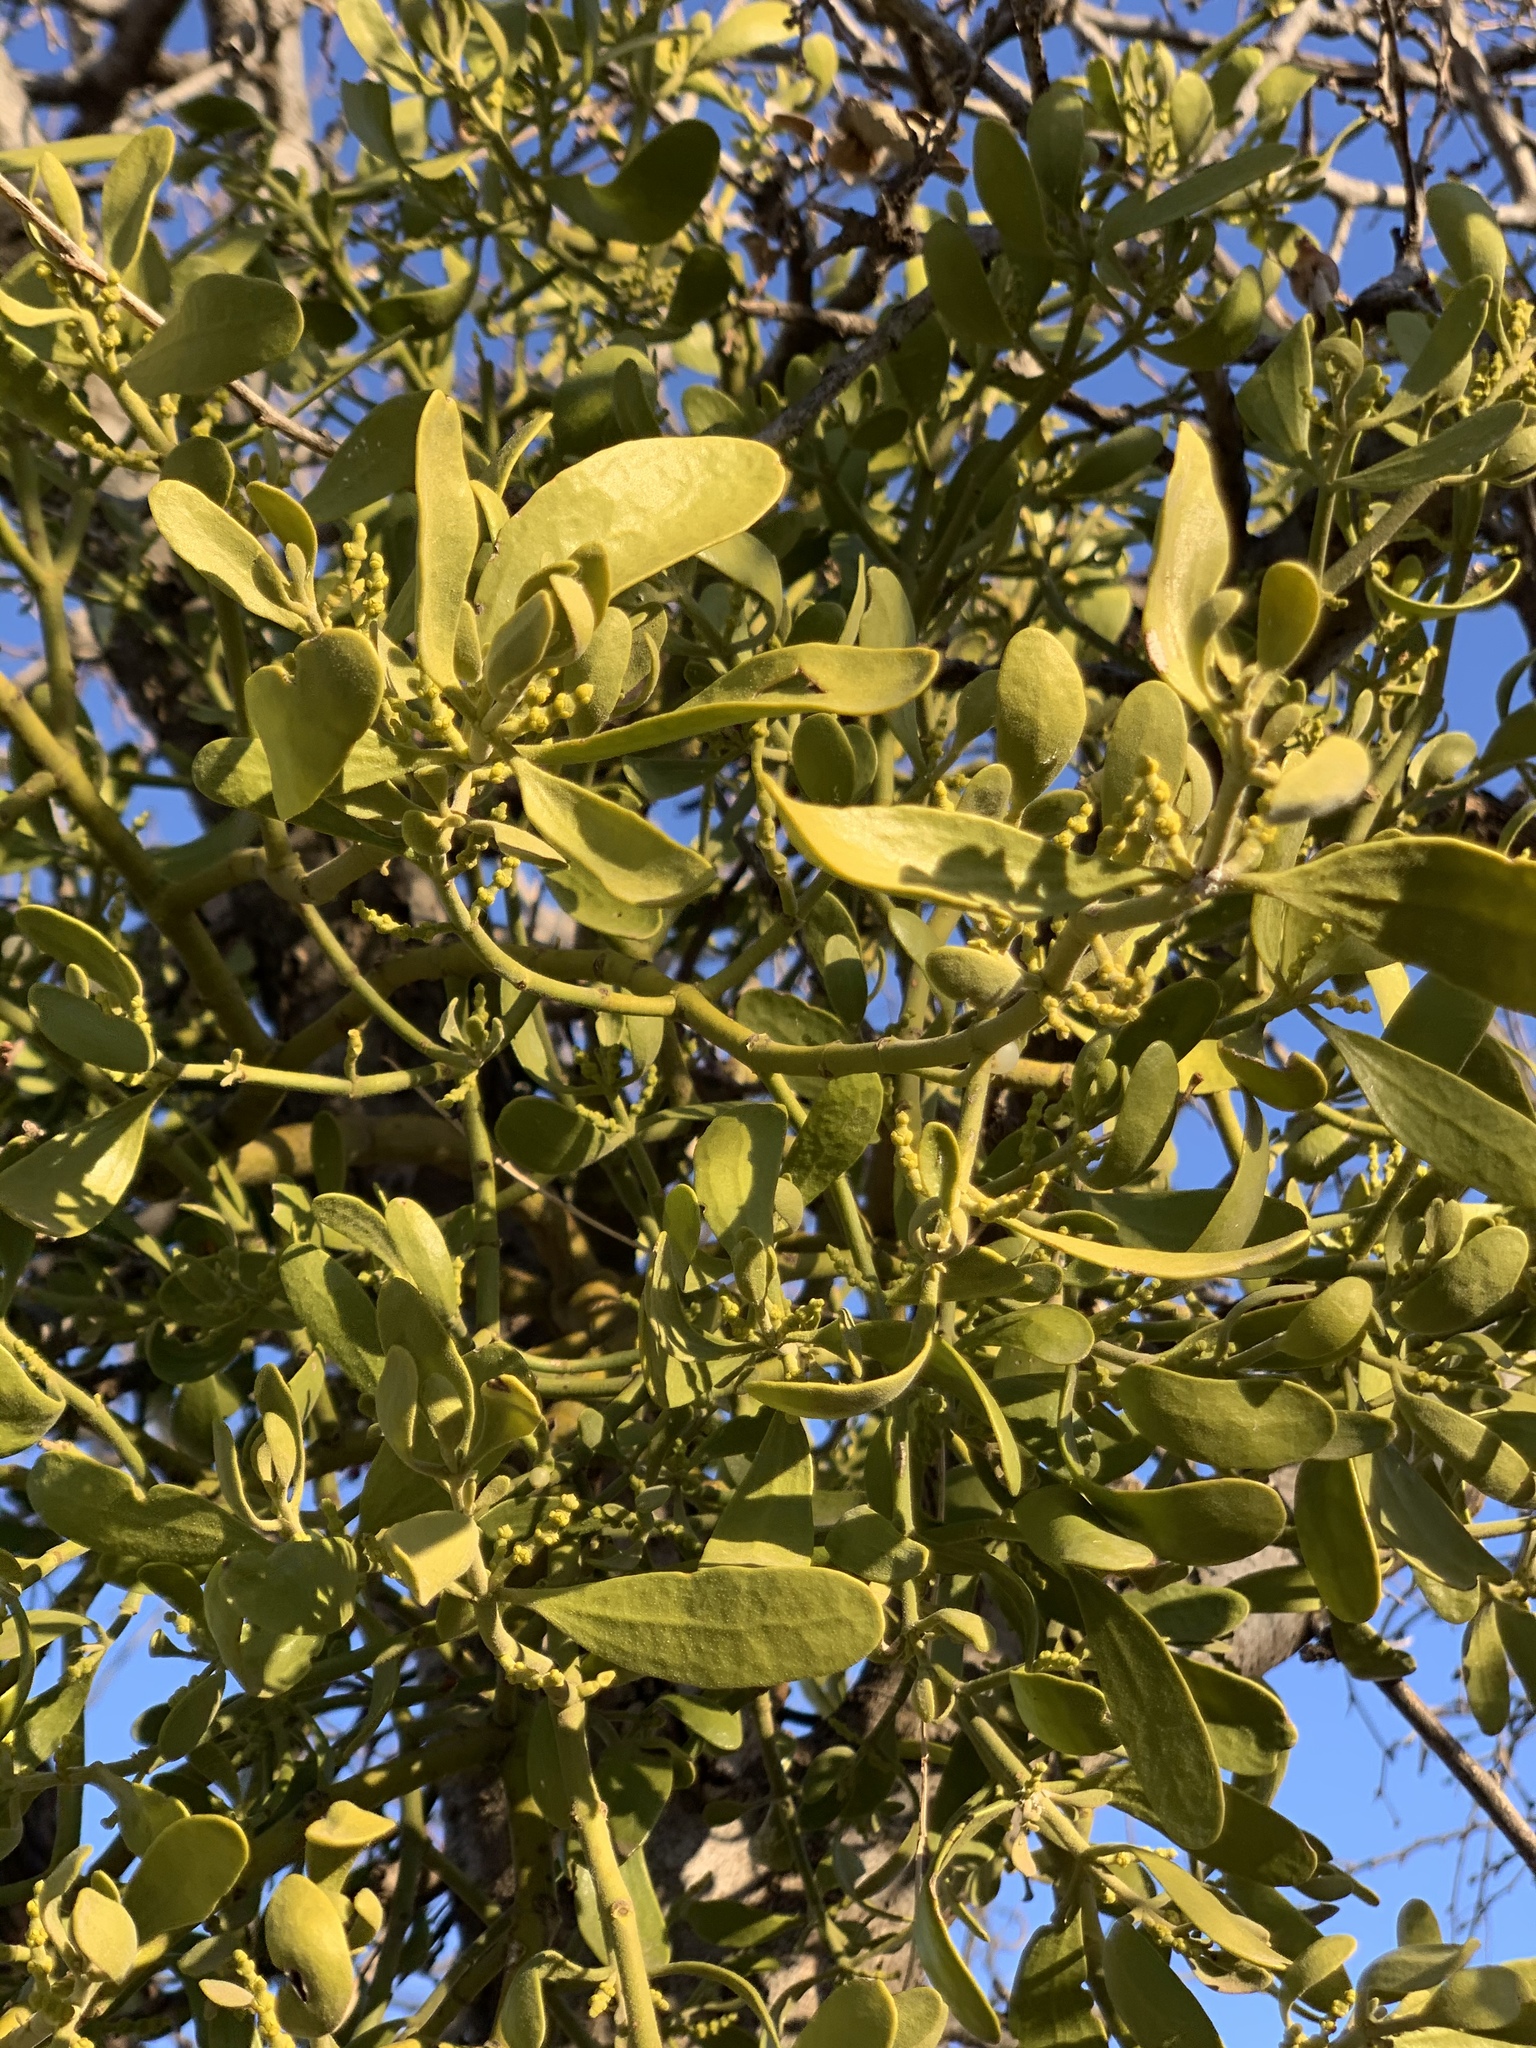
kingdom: Plantae
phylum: Tracheophyta
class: Magnoliopsida
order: Santalales
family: Viscaceae
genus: Phoradendron
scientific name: Phoradendron leucarpum
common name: Pacific mistletoe
